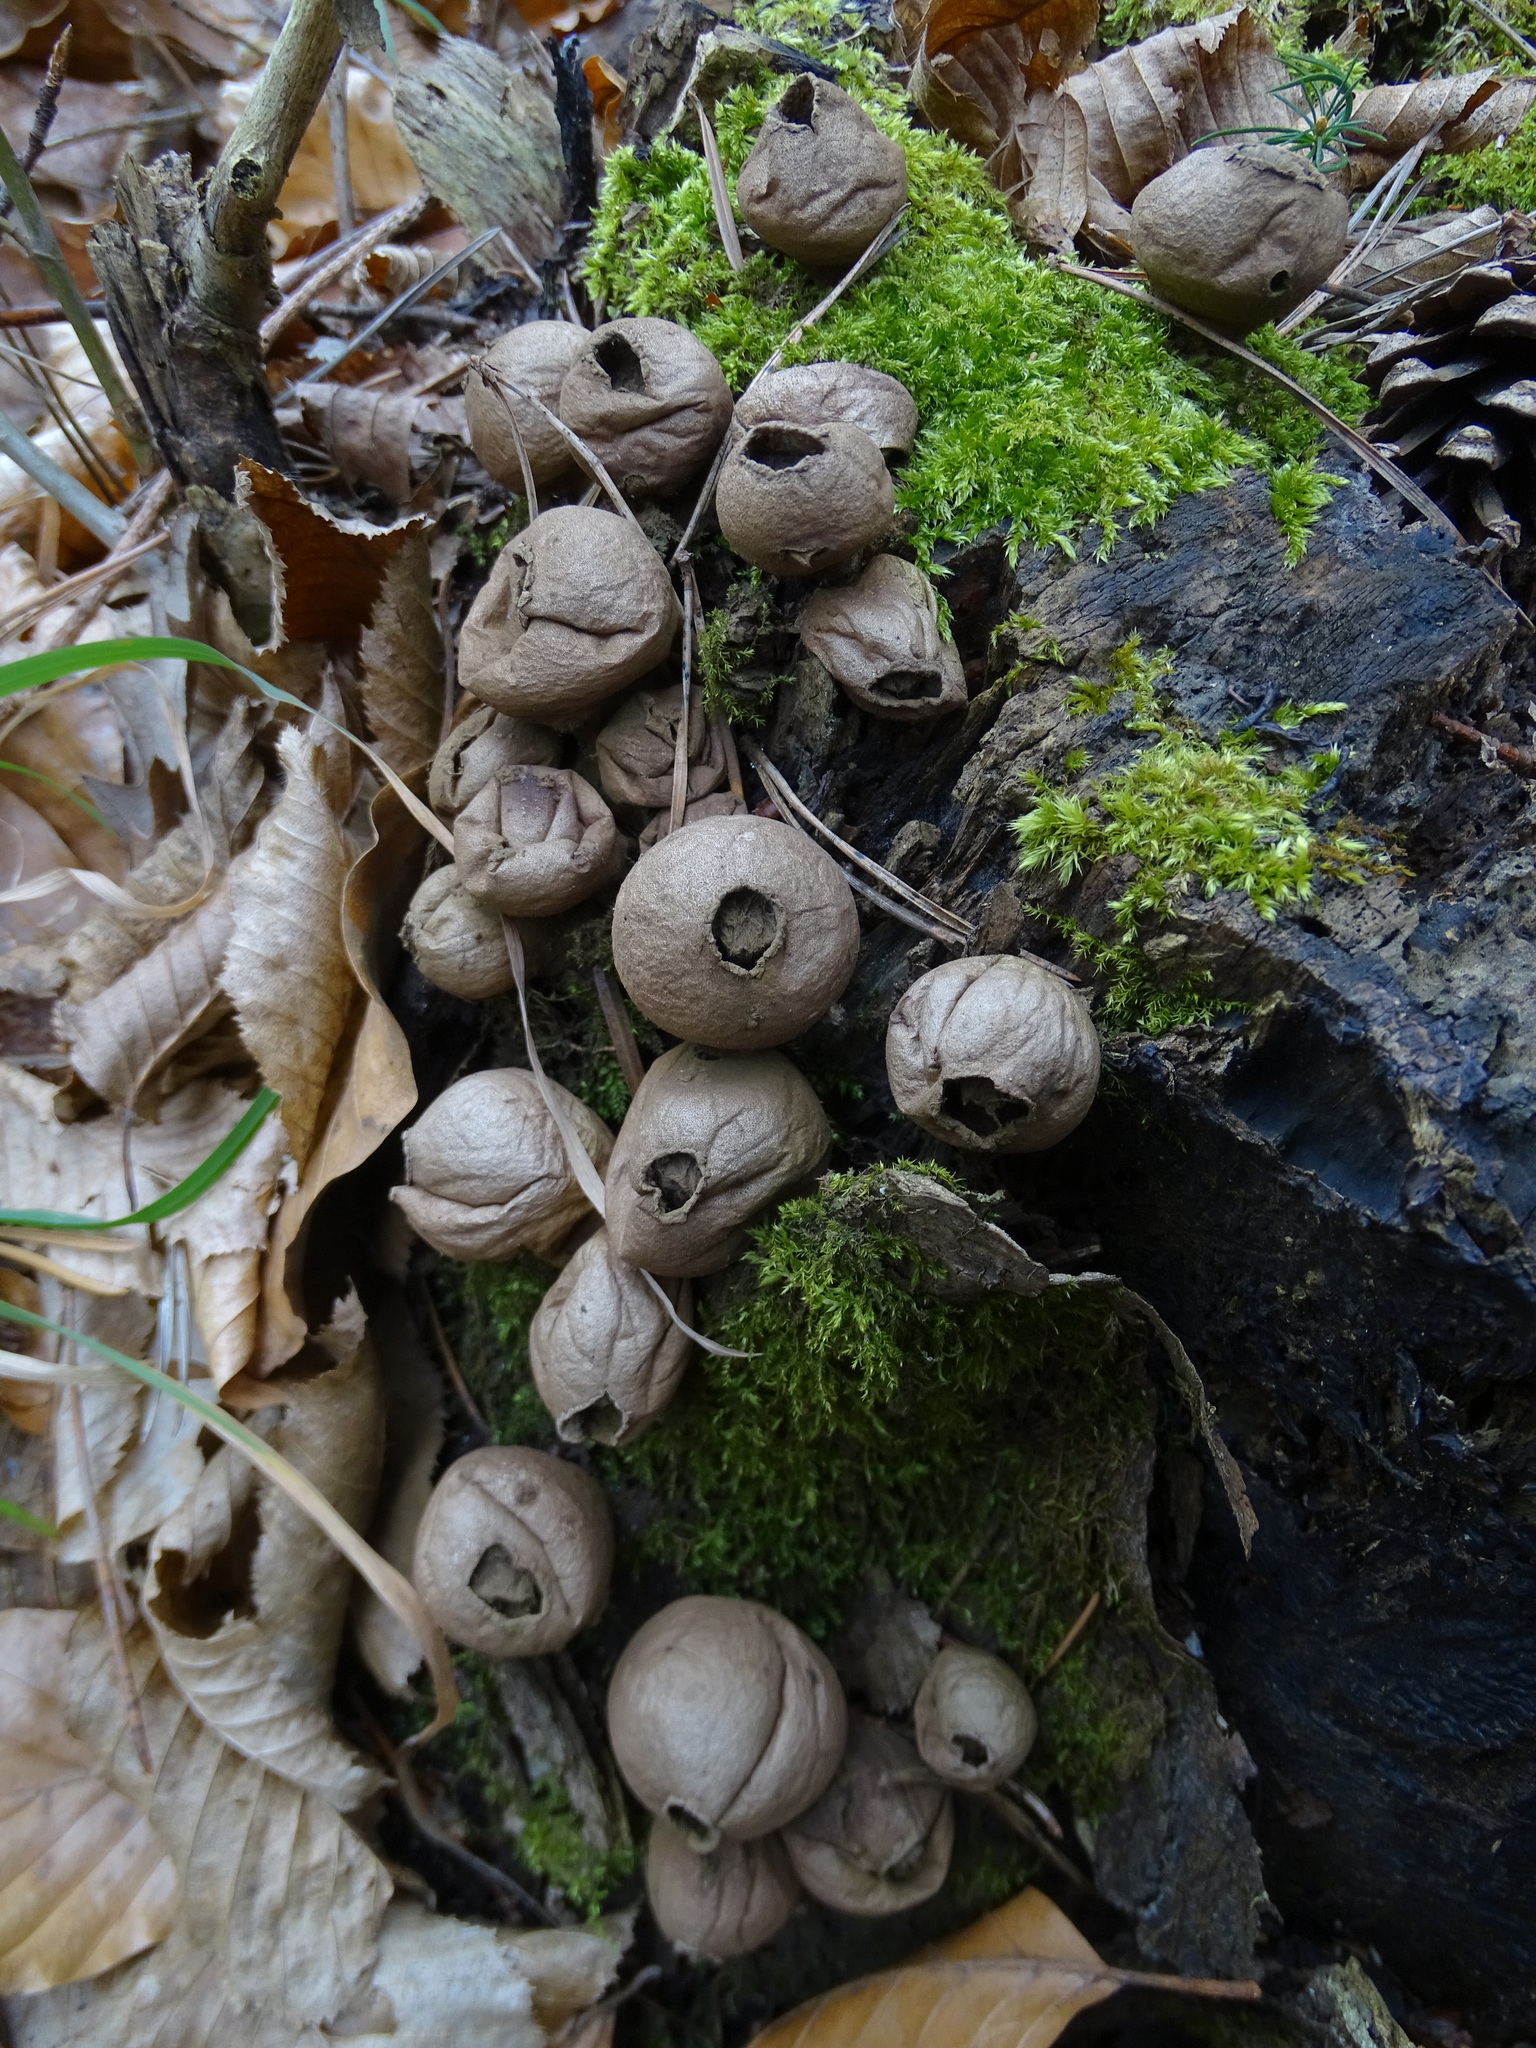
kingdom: Fungi
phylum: Basidiomycota
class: Agaricomycetes
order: Agaricales
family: Lycoperdaceae
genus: Apioperdon
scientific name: Apioperdon pyriforme
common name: Pear-shaped puffball
